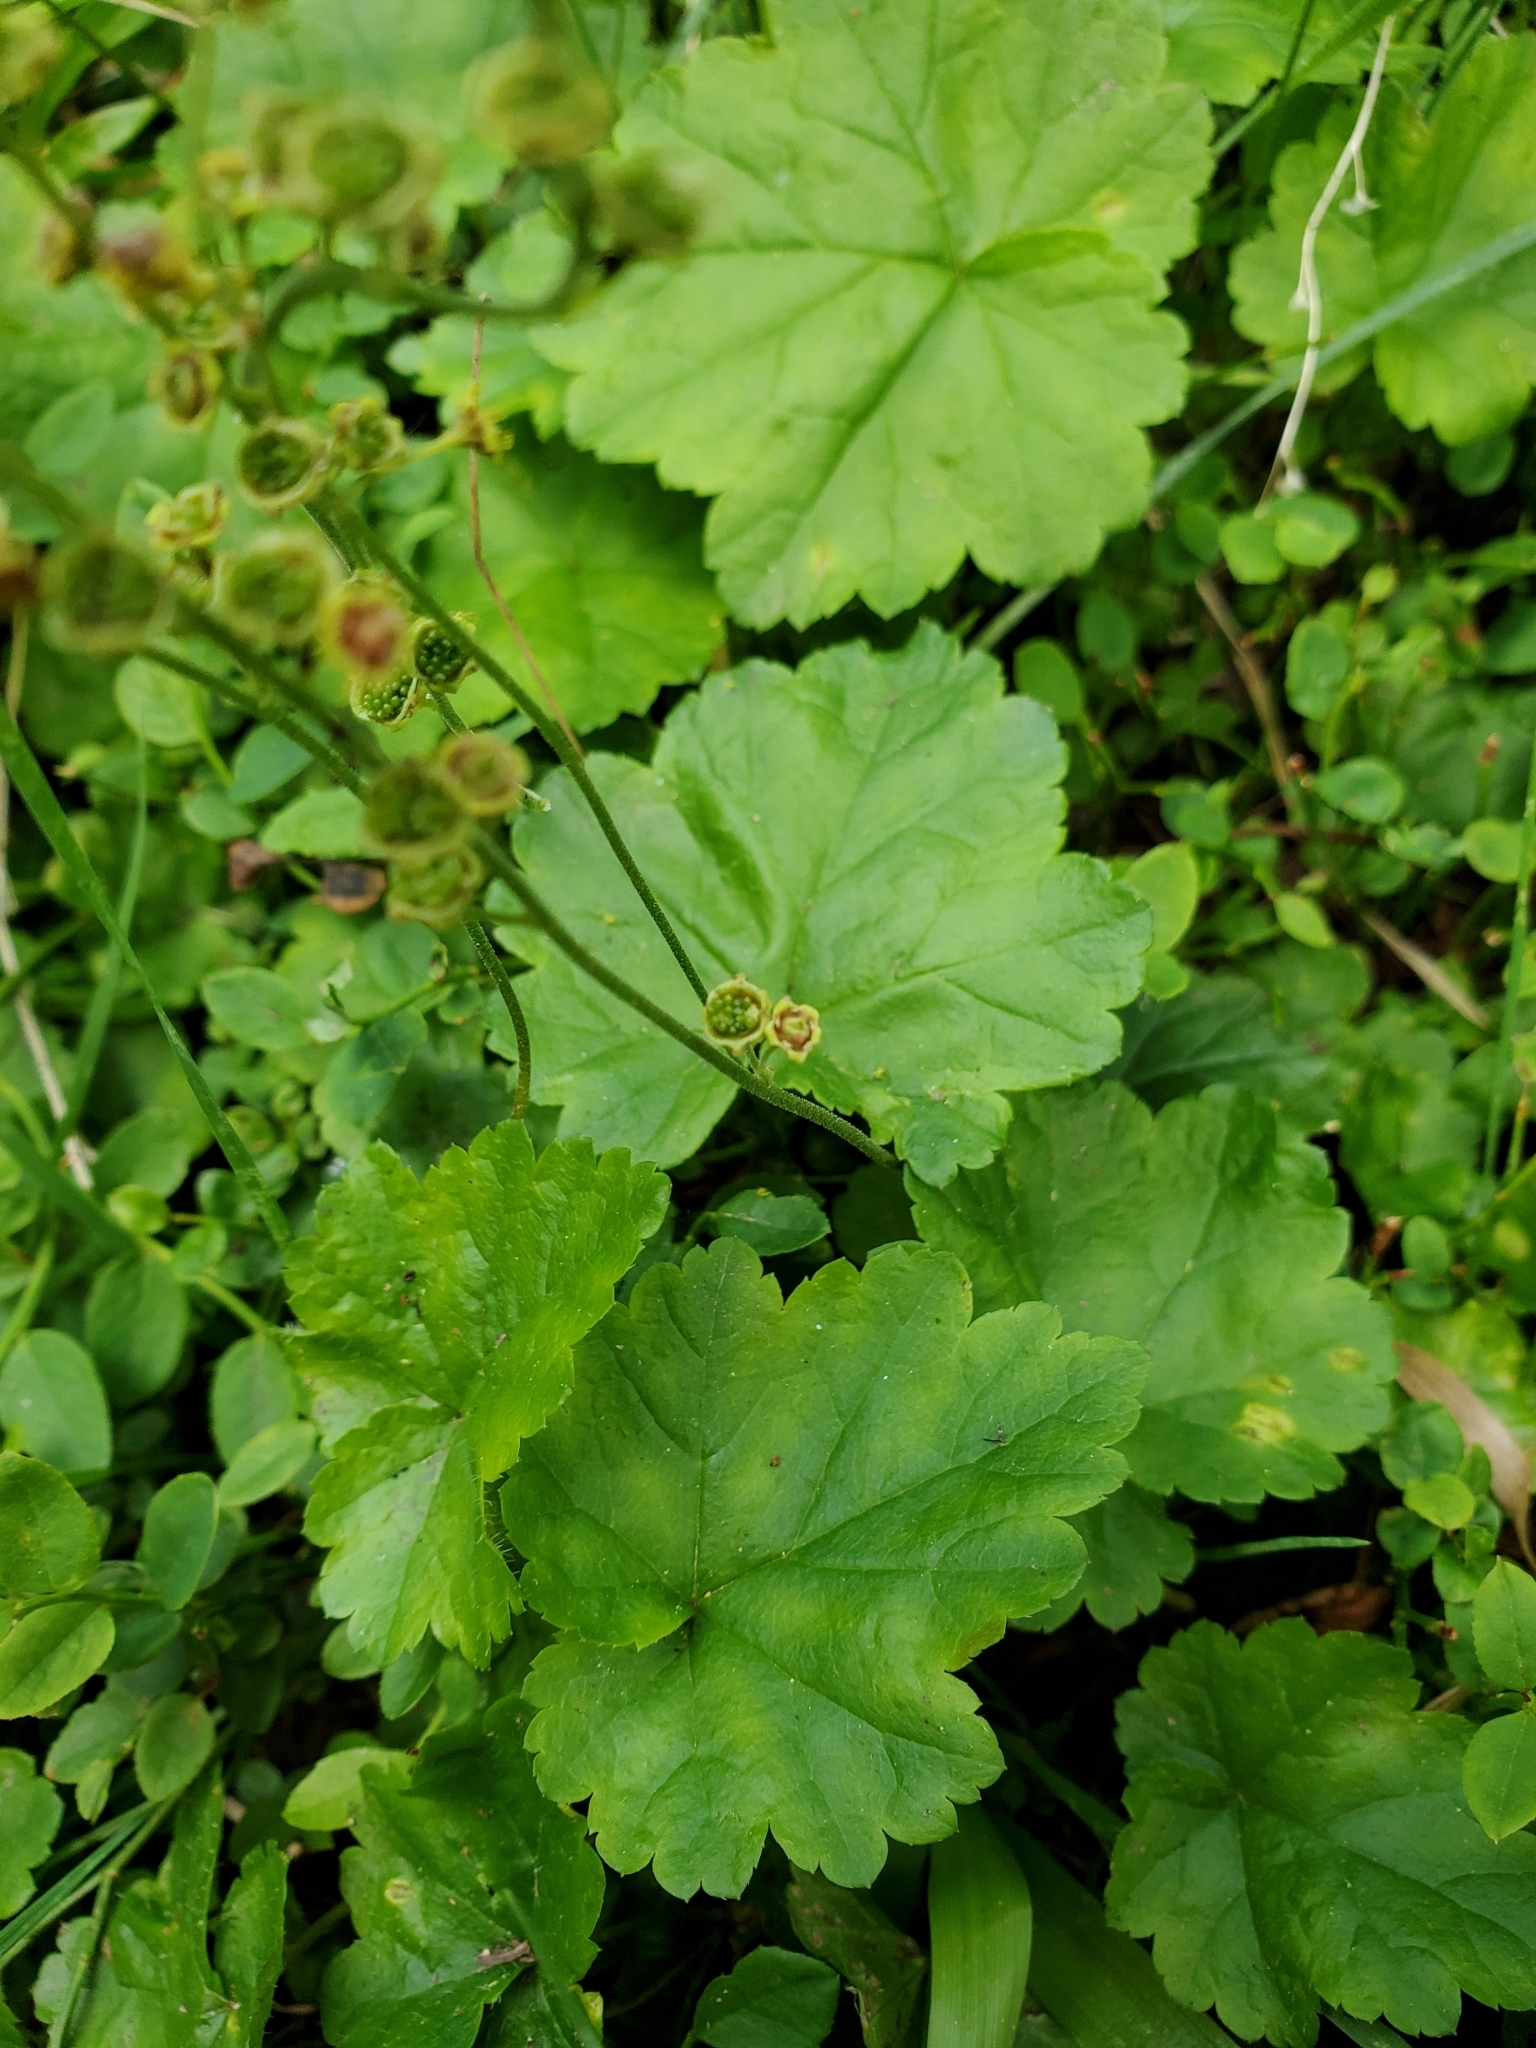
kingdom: Plantae
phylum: Tracheophyta
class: Magnoliopsida
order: Saxifragales
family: Saxifragaceae
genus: Pectiantia
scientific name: Pectiantia pentandra
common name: Alpine bishop's-cap
